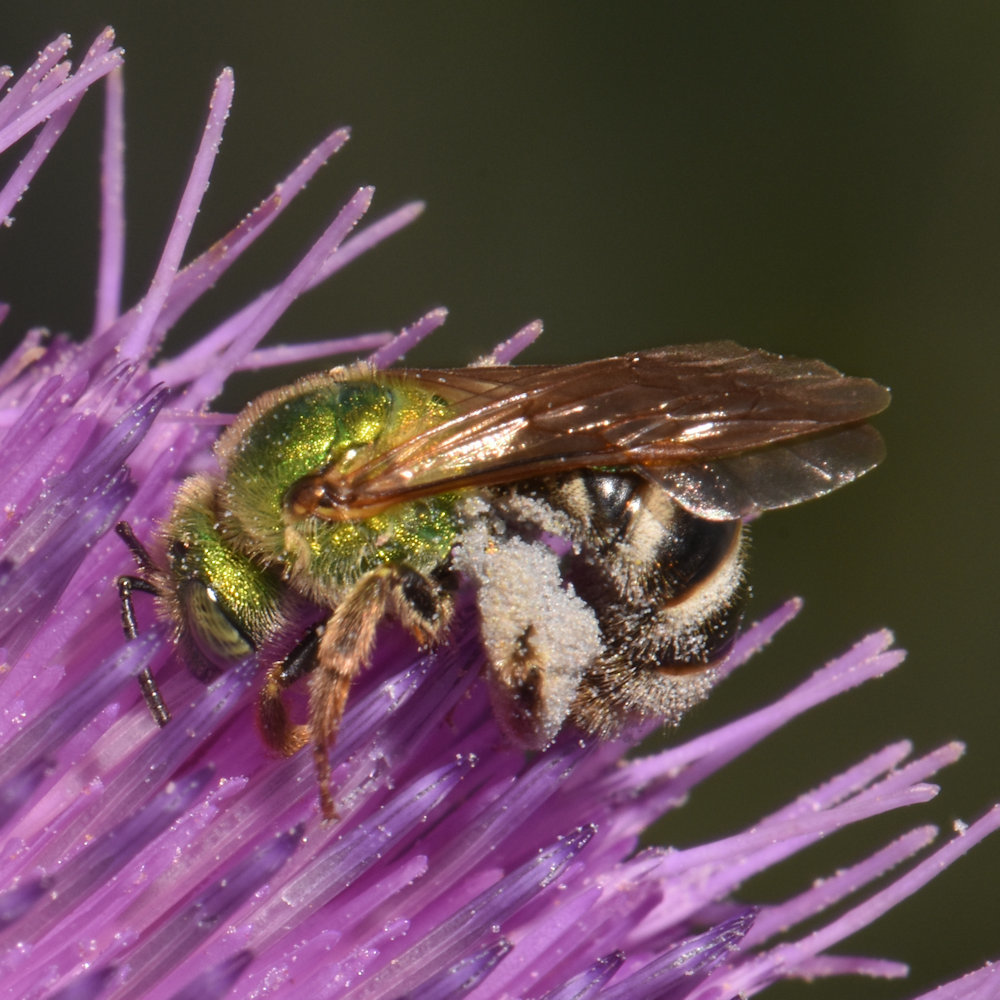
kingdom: Animalia
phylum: Arthropoda
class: Insecta
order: Hymenoptera
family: Halictidae
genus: Agapostemon
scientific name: Agapostemon virescens
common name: Bicolored striped sweat bee
